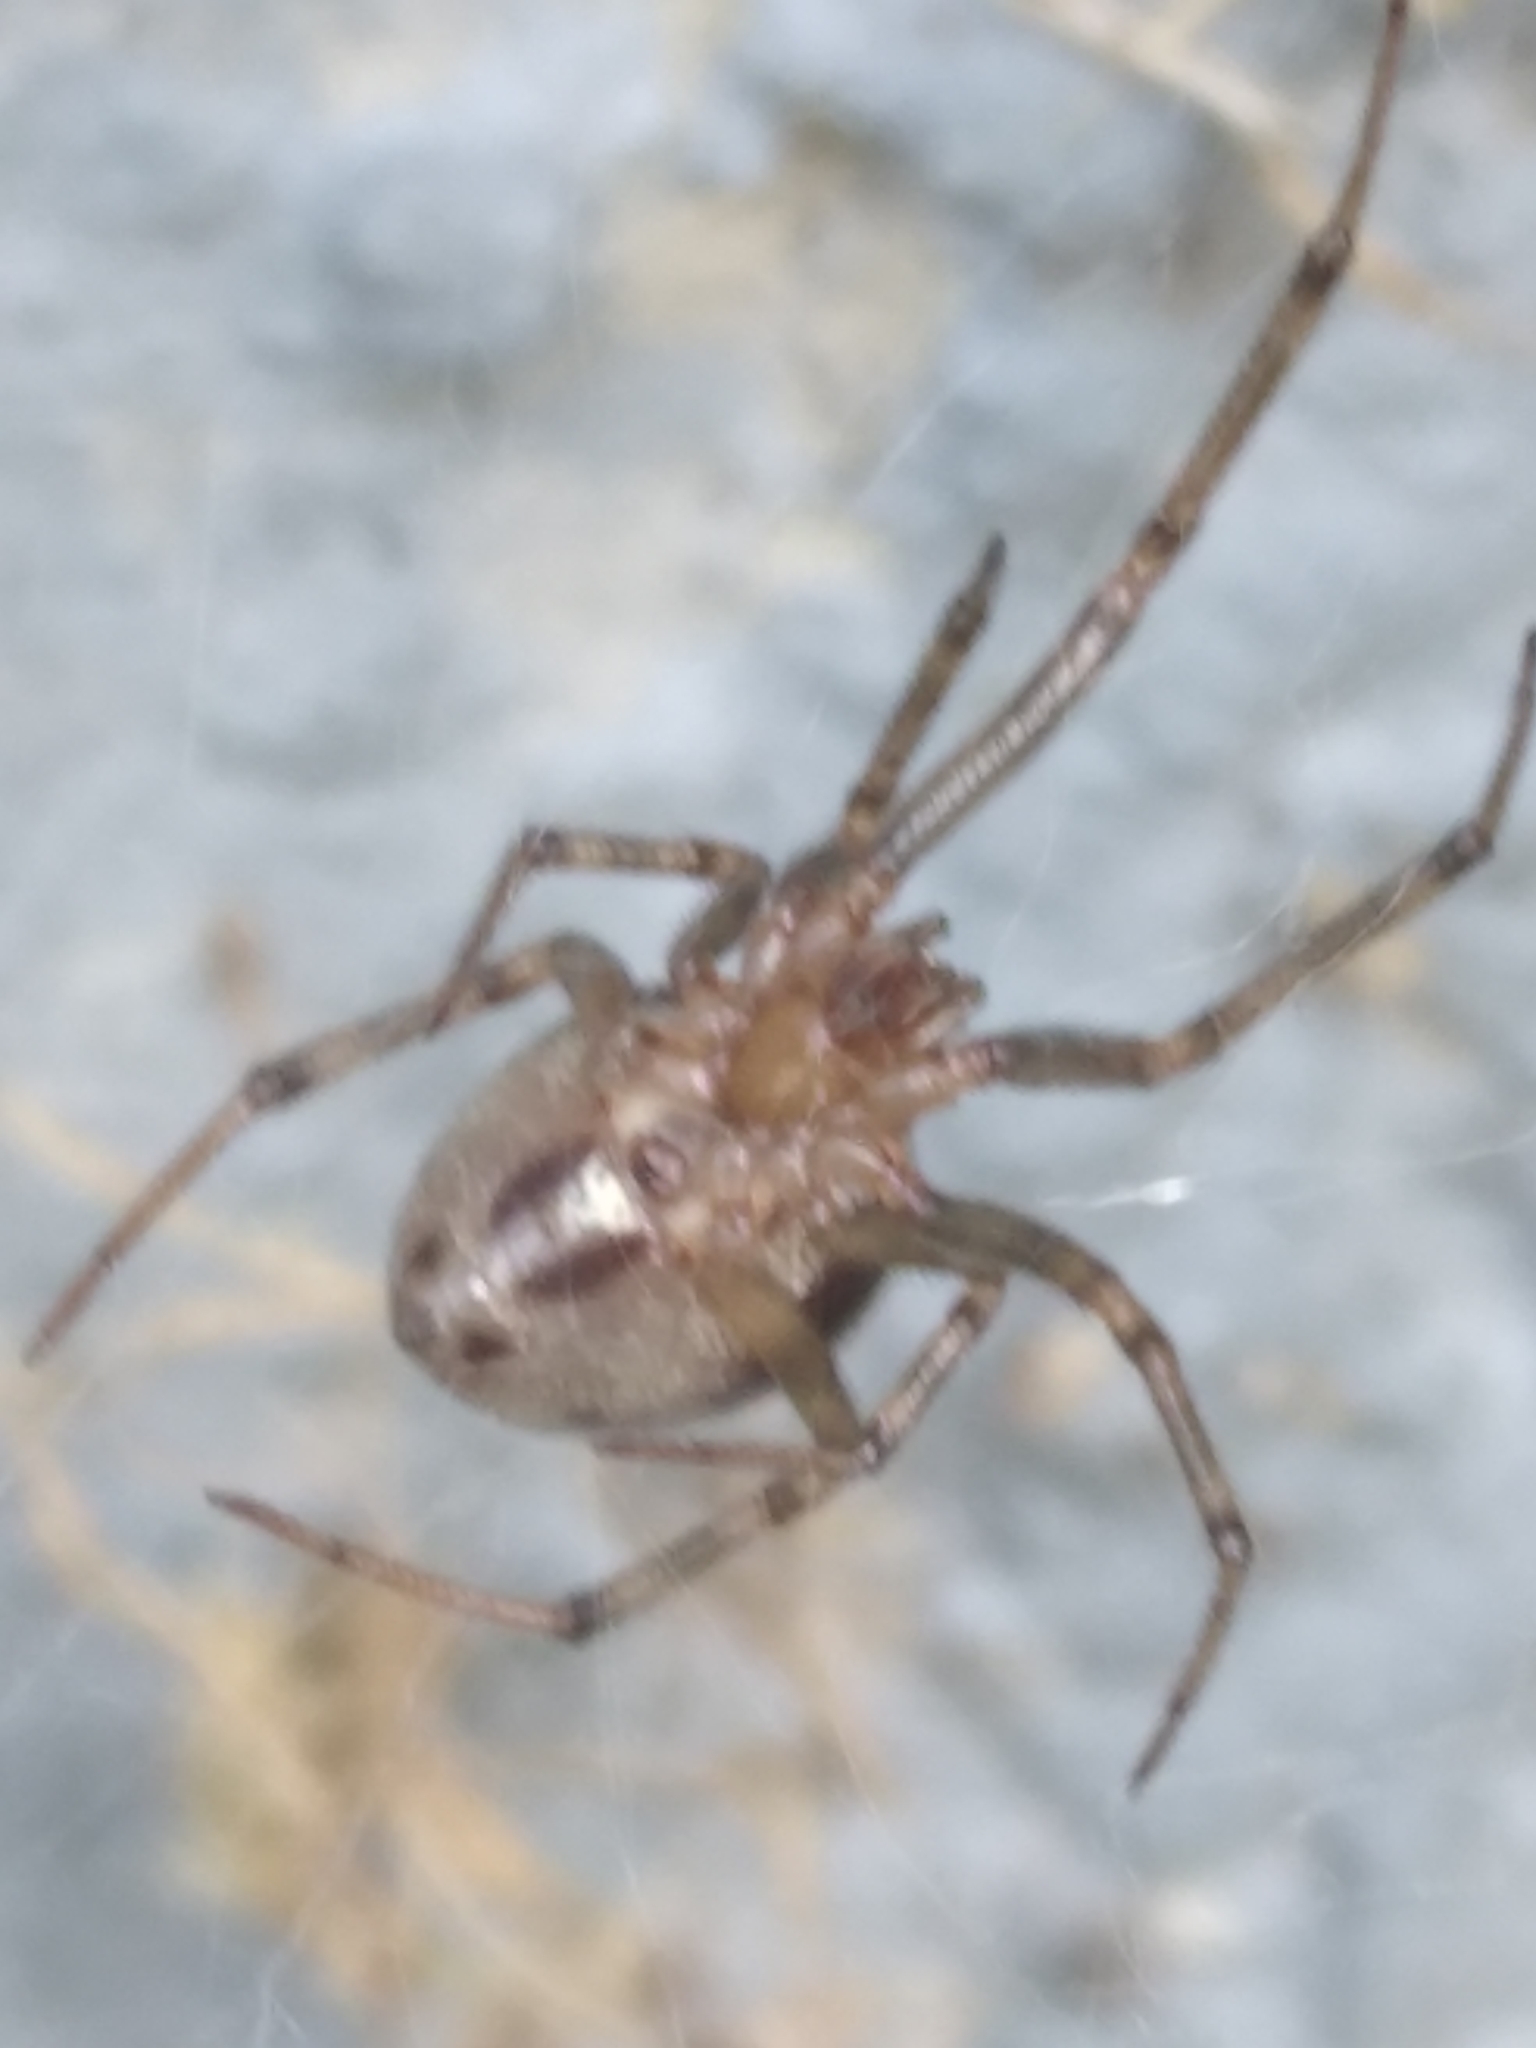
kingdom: Animalia
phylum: Arthropoda
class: Arachnida
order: Araneae
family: Theridiidae
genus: Steatoda
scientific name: Steatoda castanea
